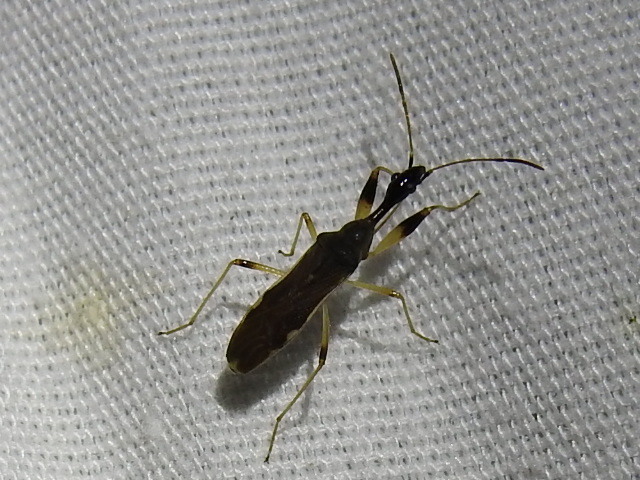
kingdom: Animalia
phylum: Arthropoda
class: Insecta
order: Hemiptera
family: Rhyparochromidae
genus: Myodocha
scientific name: Myodocha serripes
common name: Long-necked seed bug
